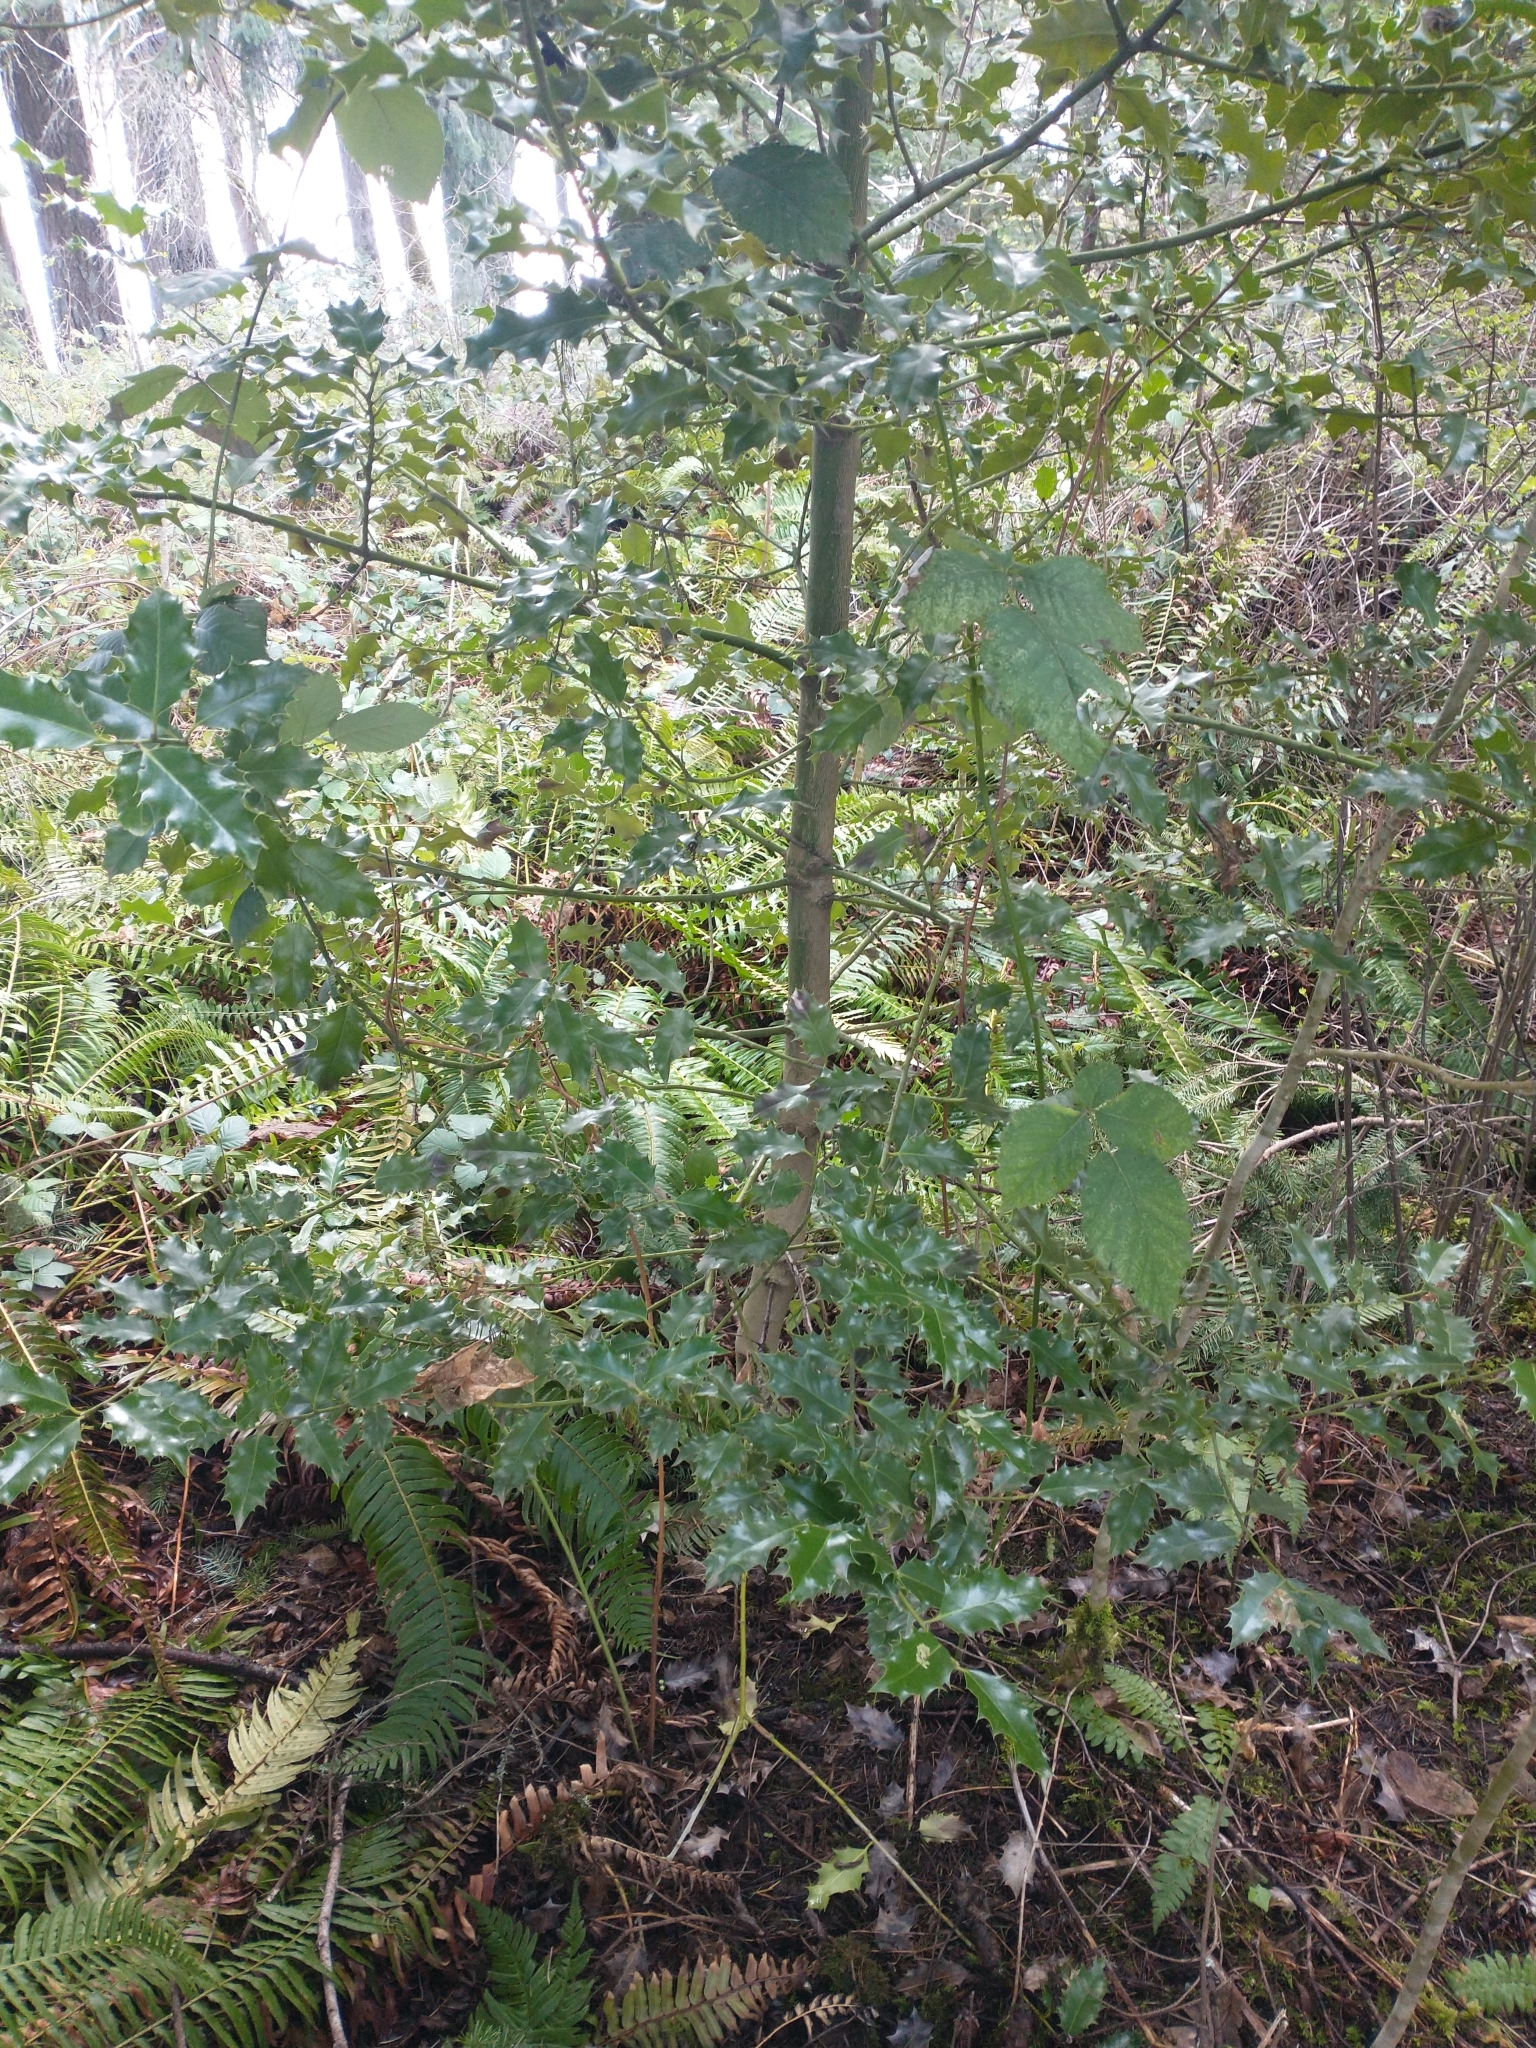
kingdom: Plantae
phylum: Tracheophyta
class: Magnoliopsida
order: Aquifoliales
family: Aquifoliaceae
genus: Ilex
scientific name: Ilex aquifolium
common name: English holly
